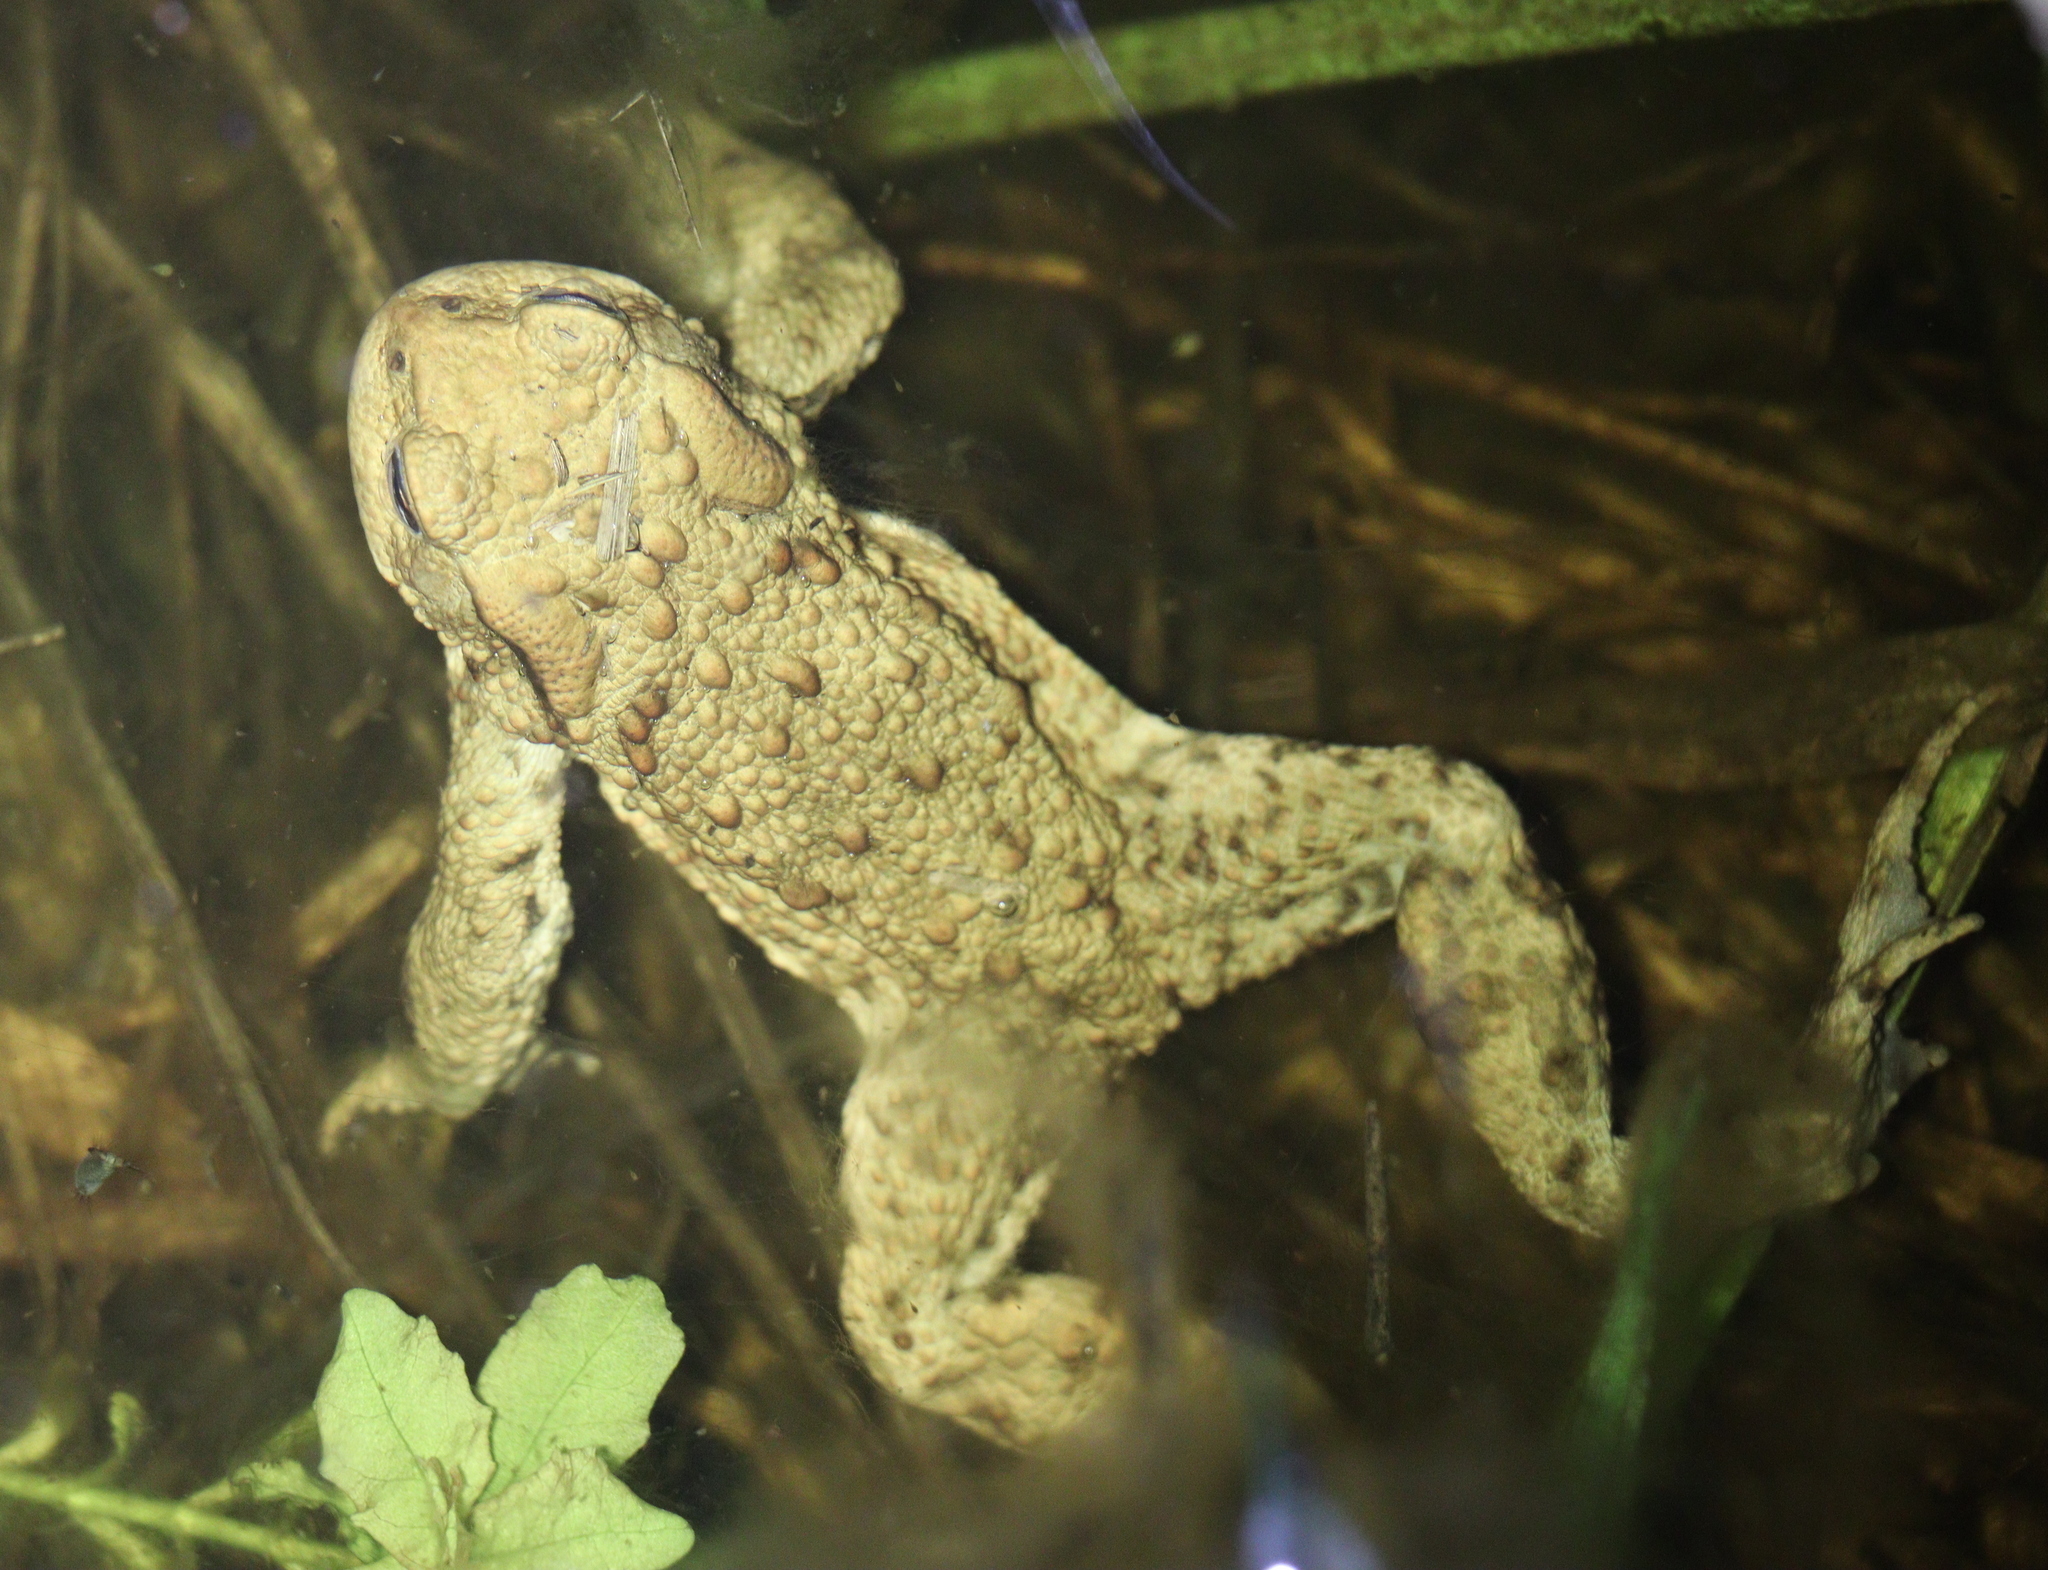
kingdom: Animalia
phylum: Chordata
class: Amphibia
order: Anura
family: Bufonidae
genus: Bufo
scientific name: Bufo bufo
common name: Common toad
